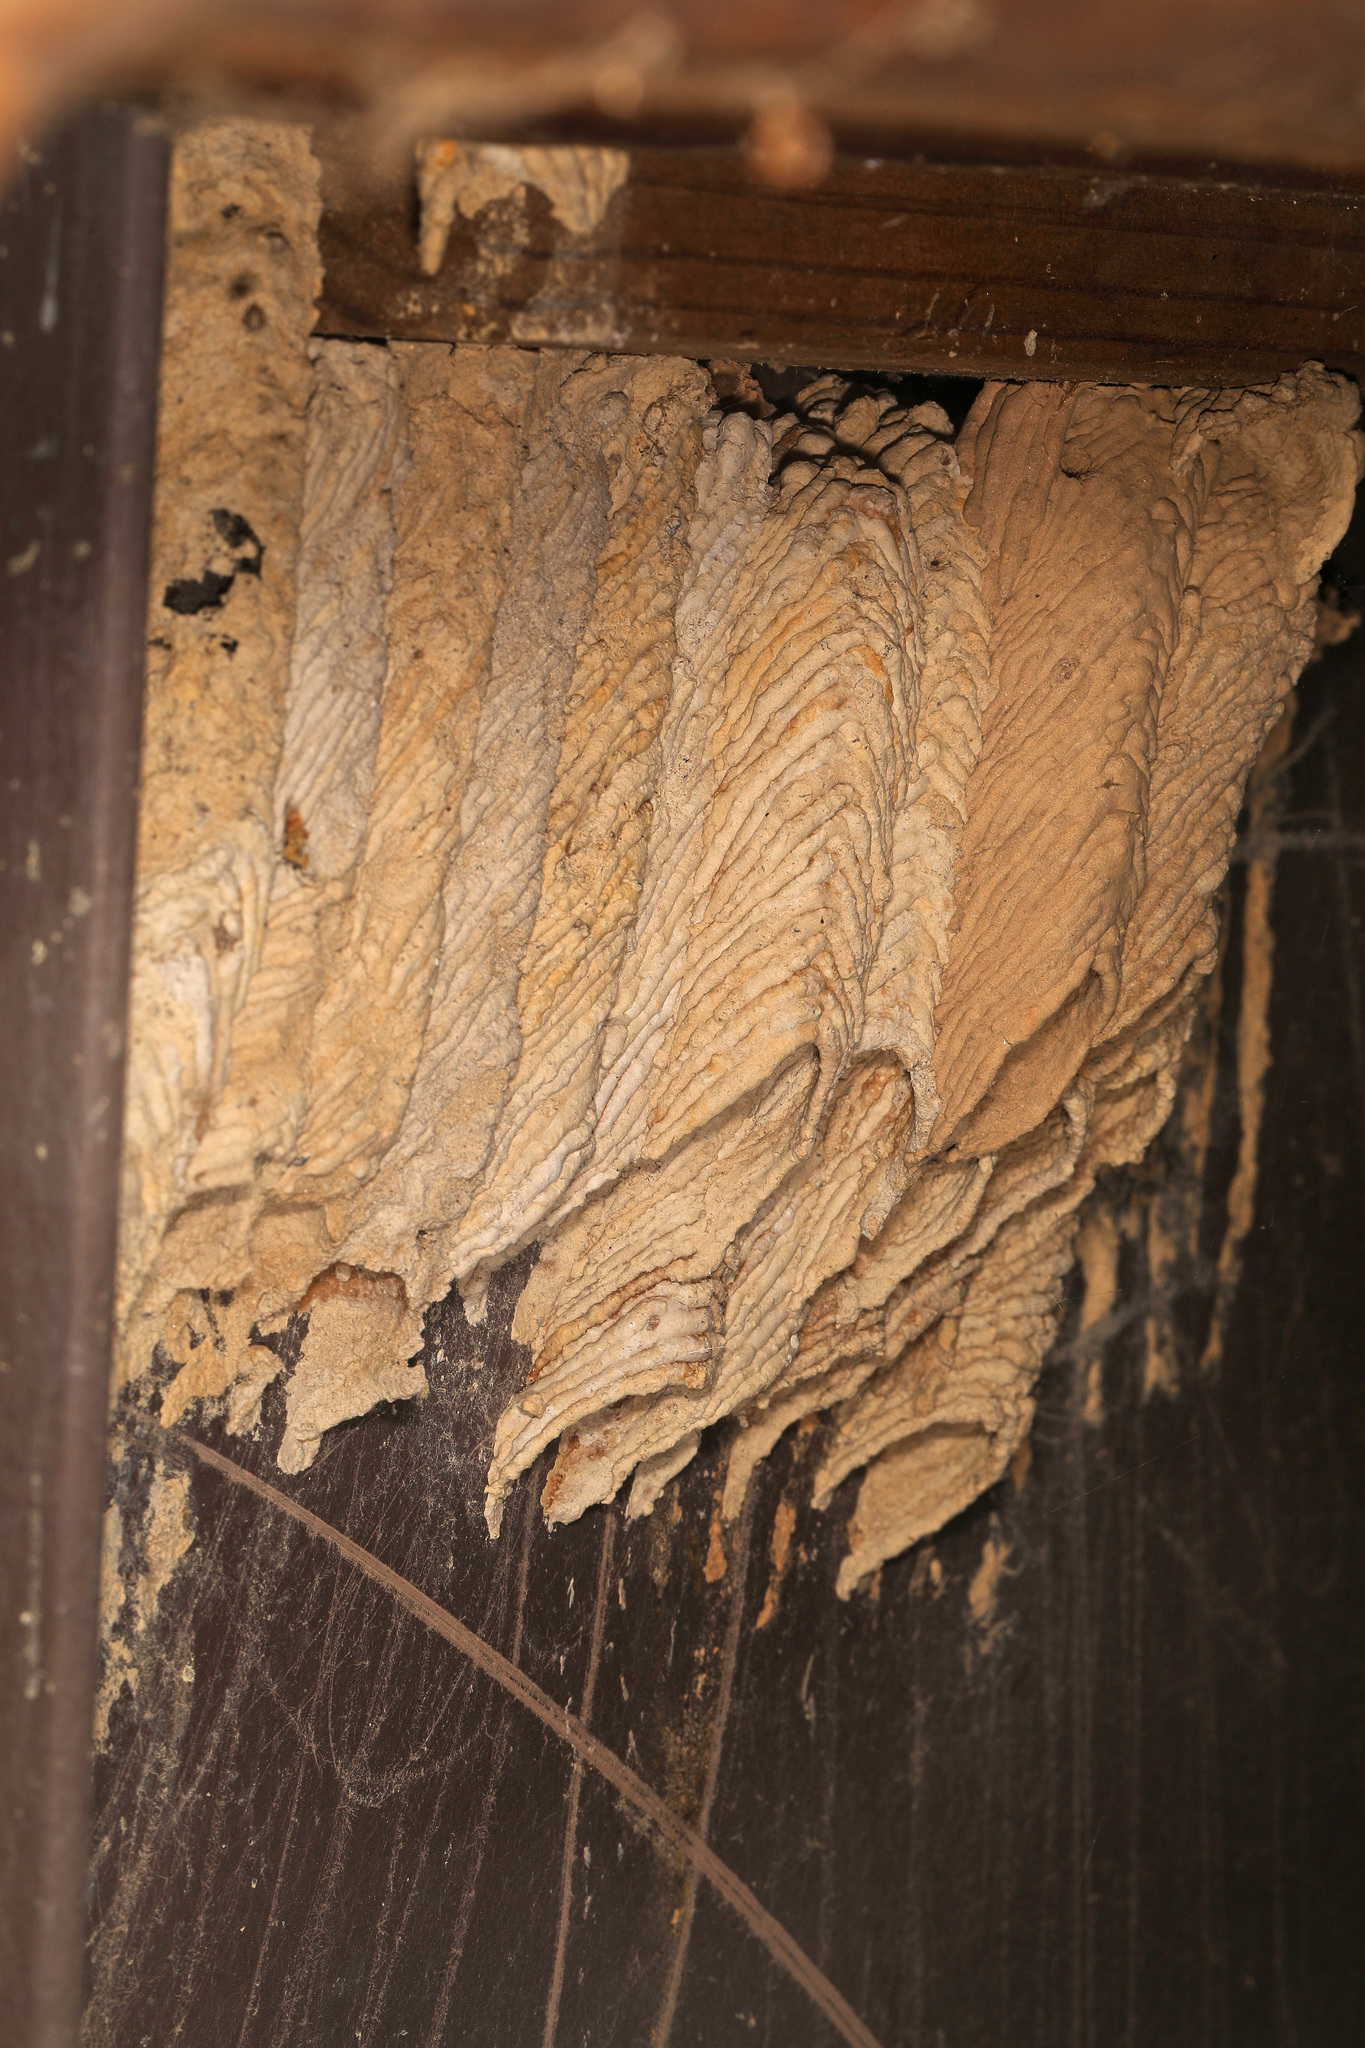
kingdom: Animalia
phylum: Arthropoda
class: Insecta
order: Hymenoptera
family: Crabronidae
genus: Trypoxylon
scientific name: Trypoxylon politum
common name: Organ-pipe mud-dauber wasp
